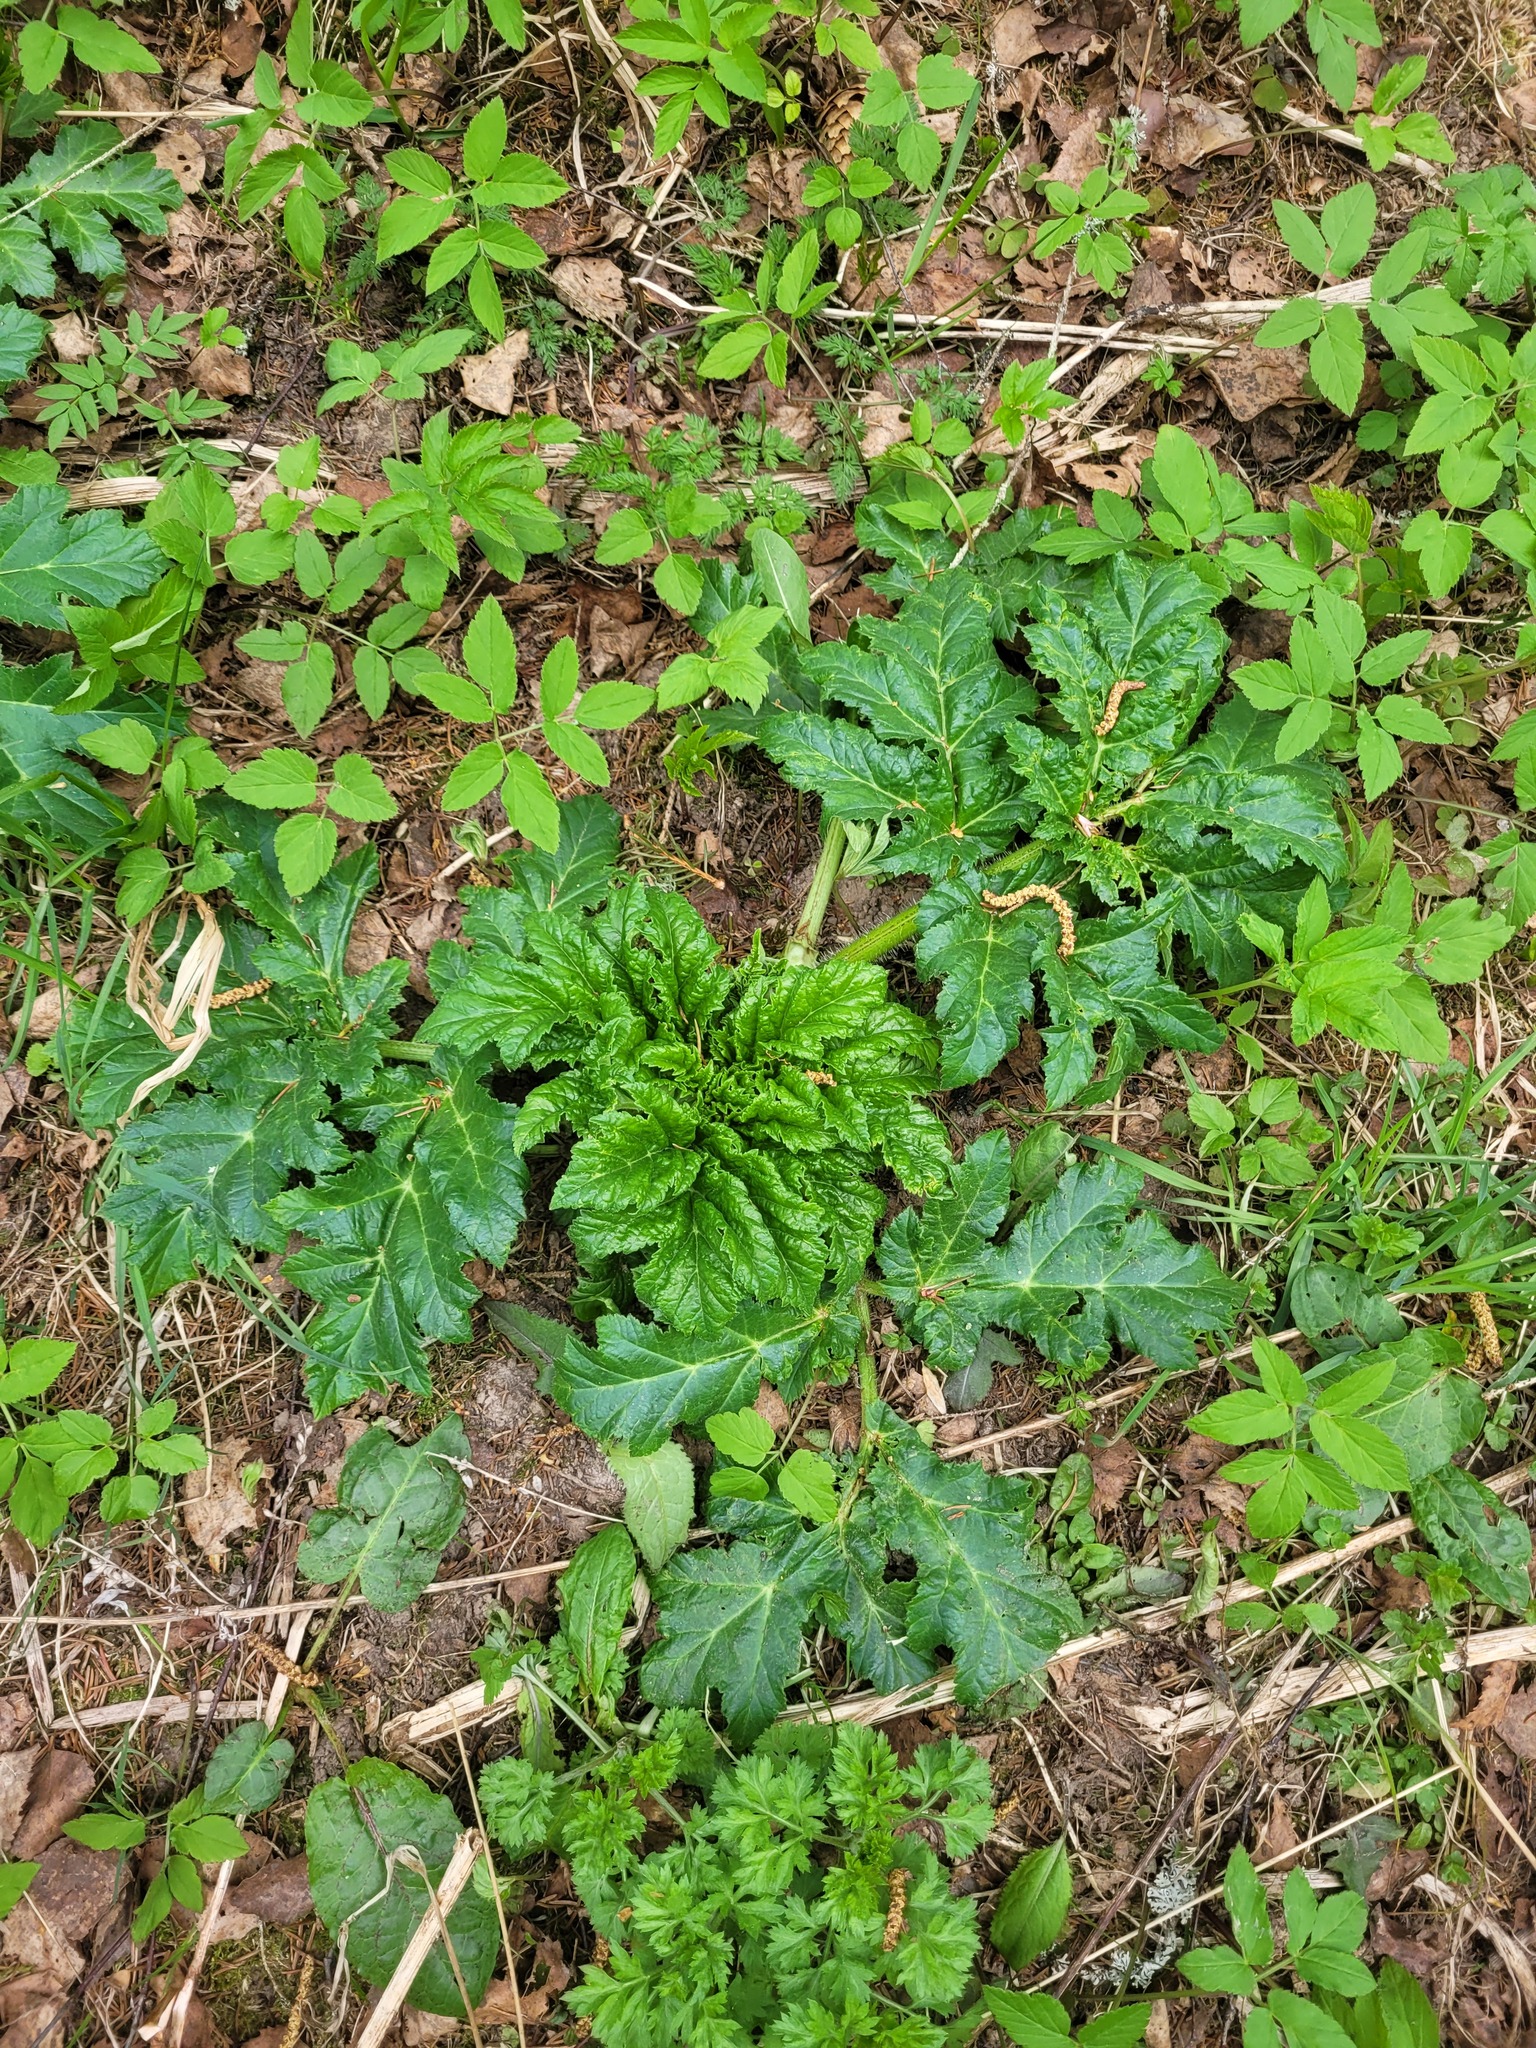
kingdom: Plantae
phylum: Tracheophyta
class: Magnoliopsida
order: Apiales
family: Apiaceae
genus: Heracleum
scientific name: Heracleum sosnowskyi
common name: Sosnowsky's hogweed
